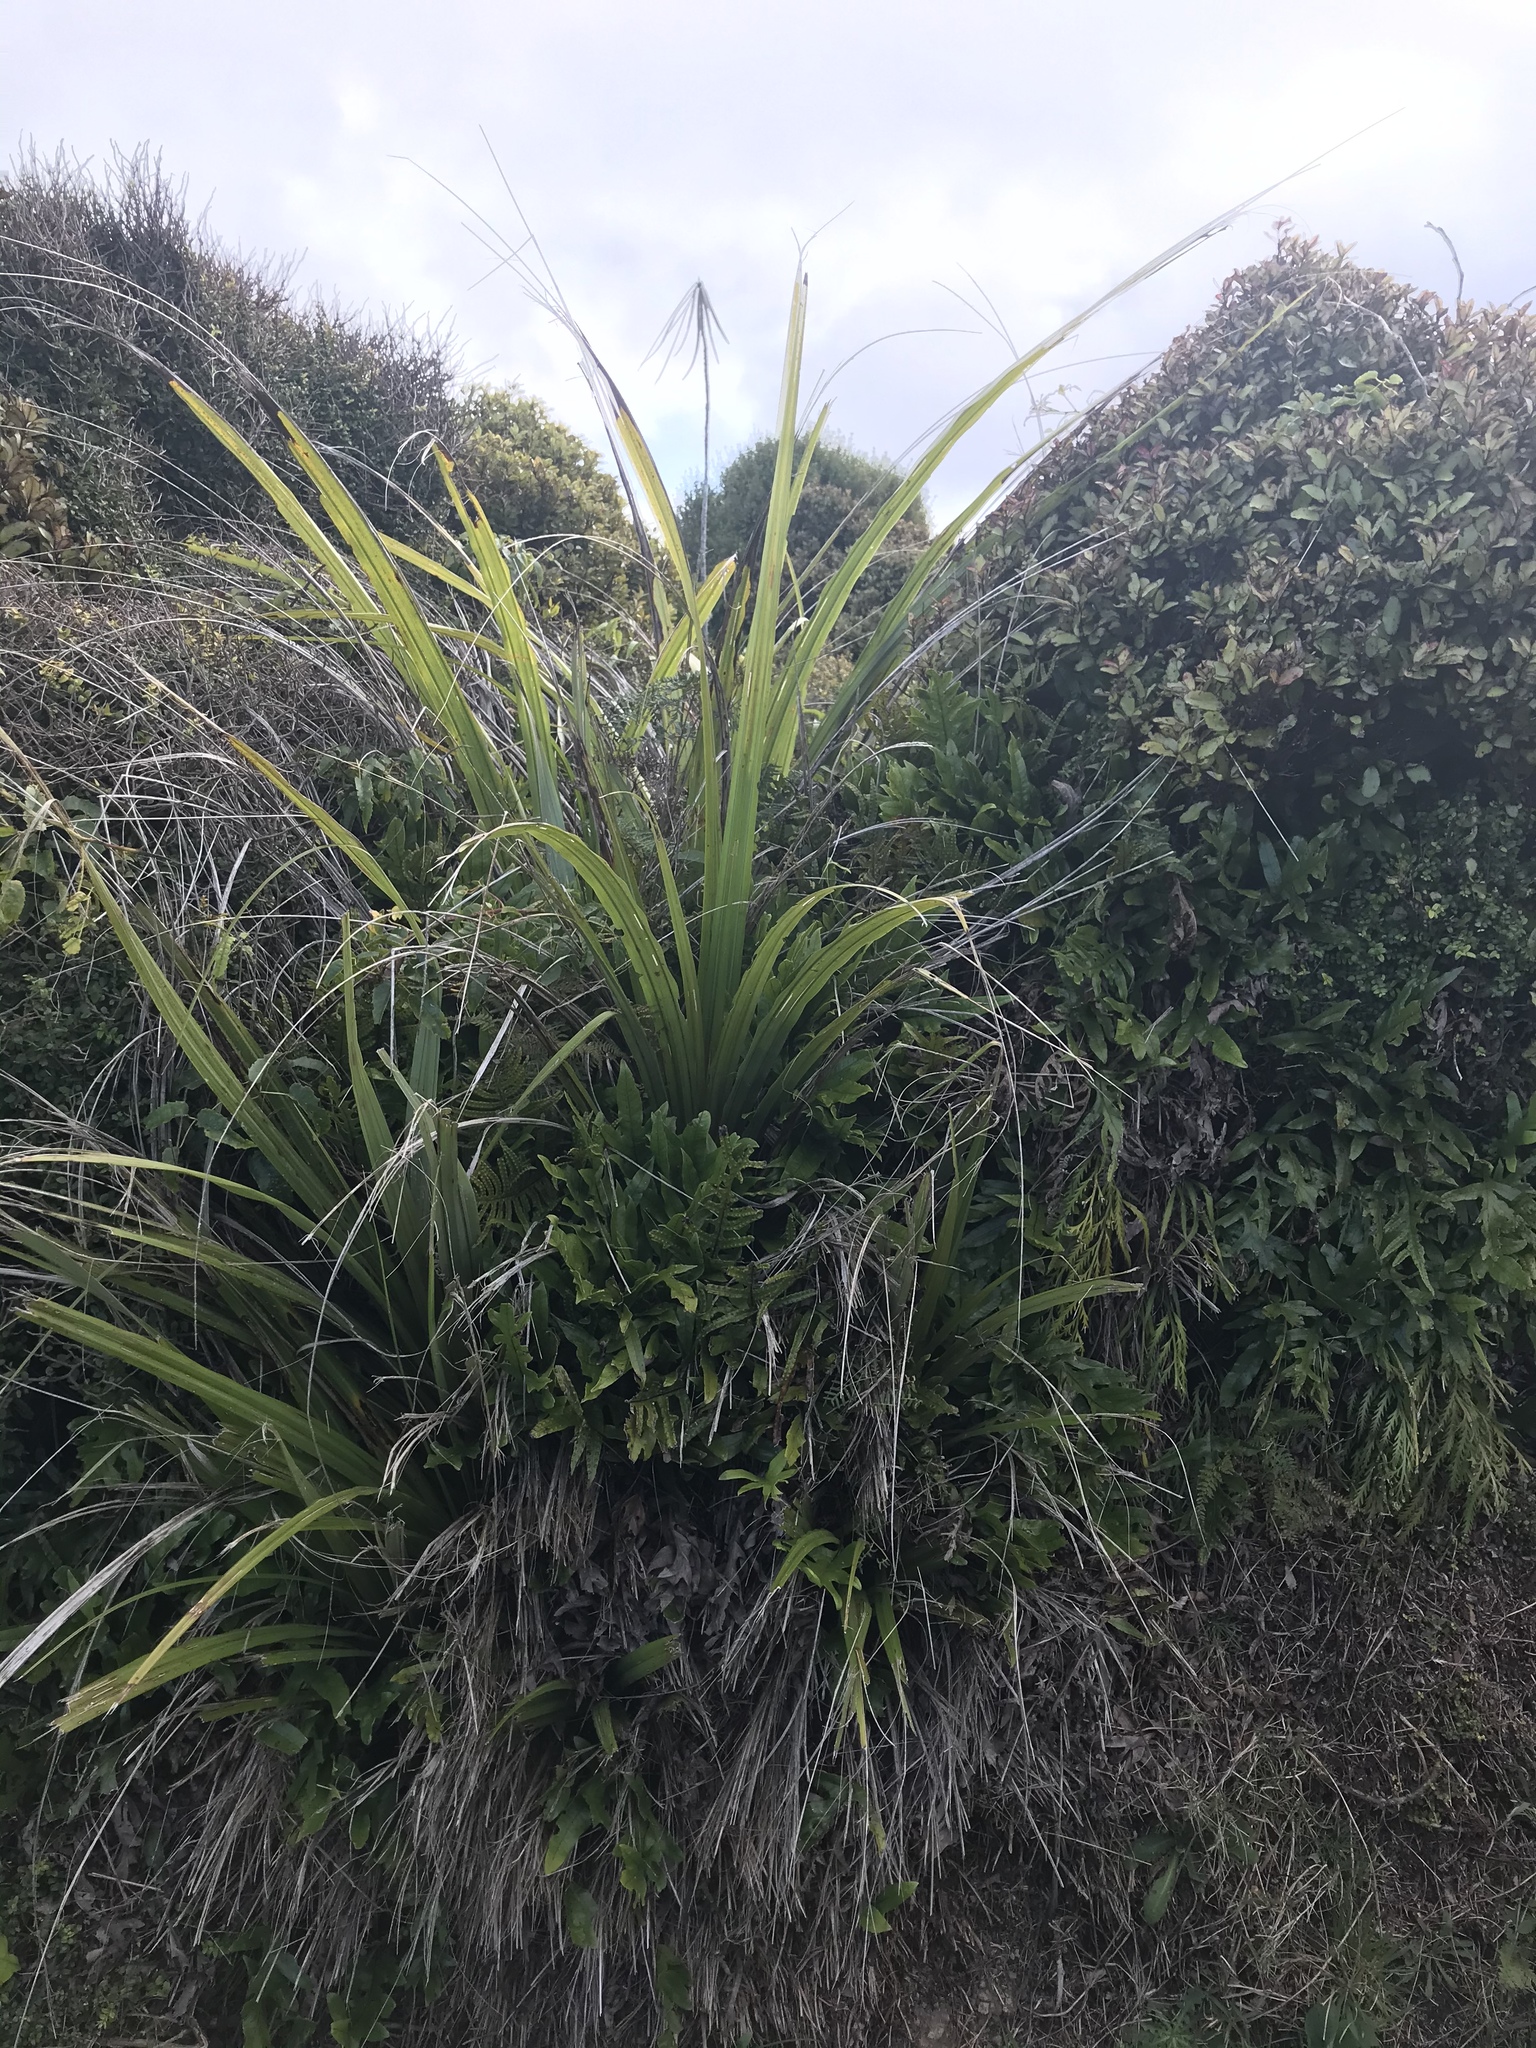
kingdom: Plantae
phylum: Tracheophyta
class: Liliopsida
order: Asparagales
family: Asteliaceae
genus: Astelia
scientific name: Astelia fragrans
